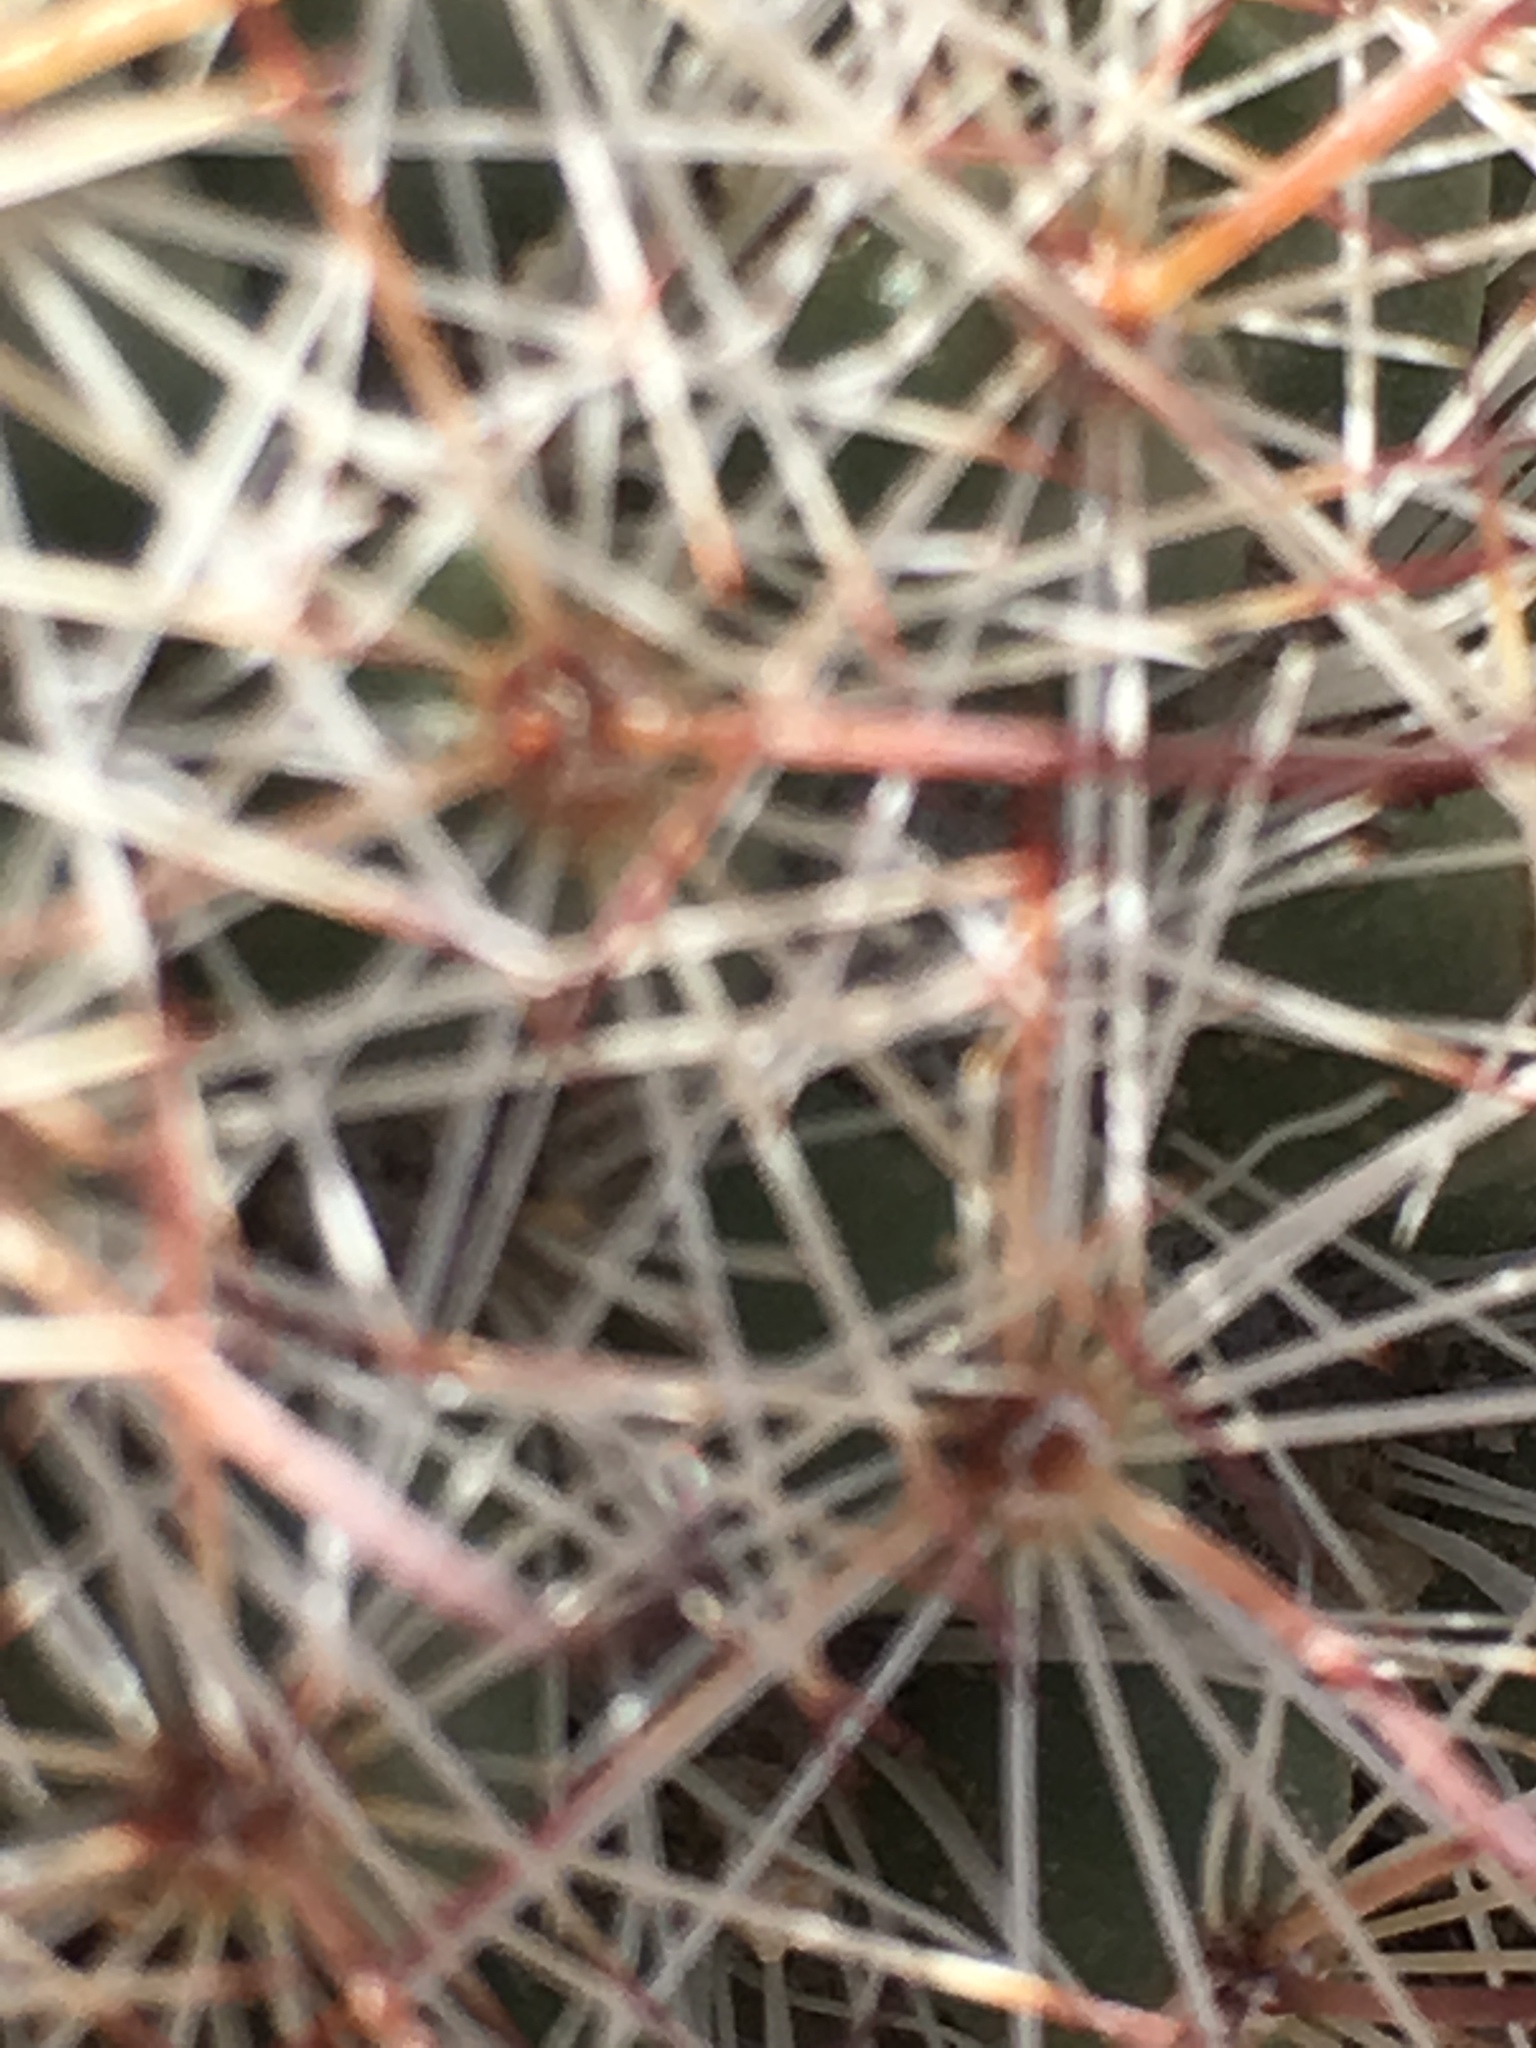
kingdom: Plantae
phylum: Tracheophyta
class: Magnoliopsida
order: Caryophyllales
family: Cactaceae
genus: Cochemiea
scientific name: Cochemiea dioica
